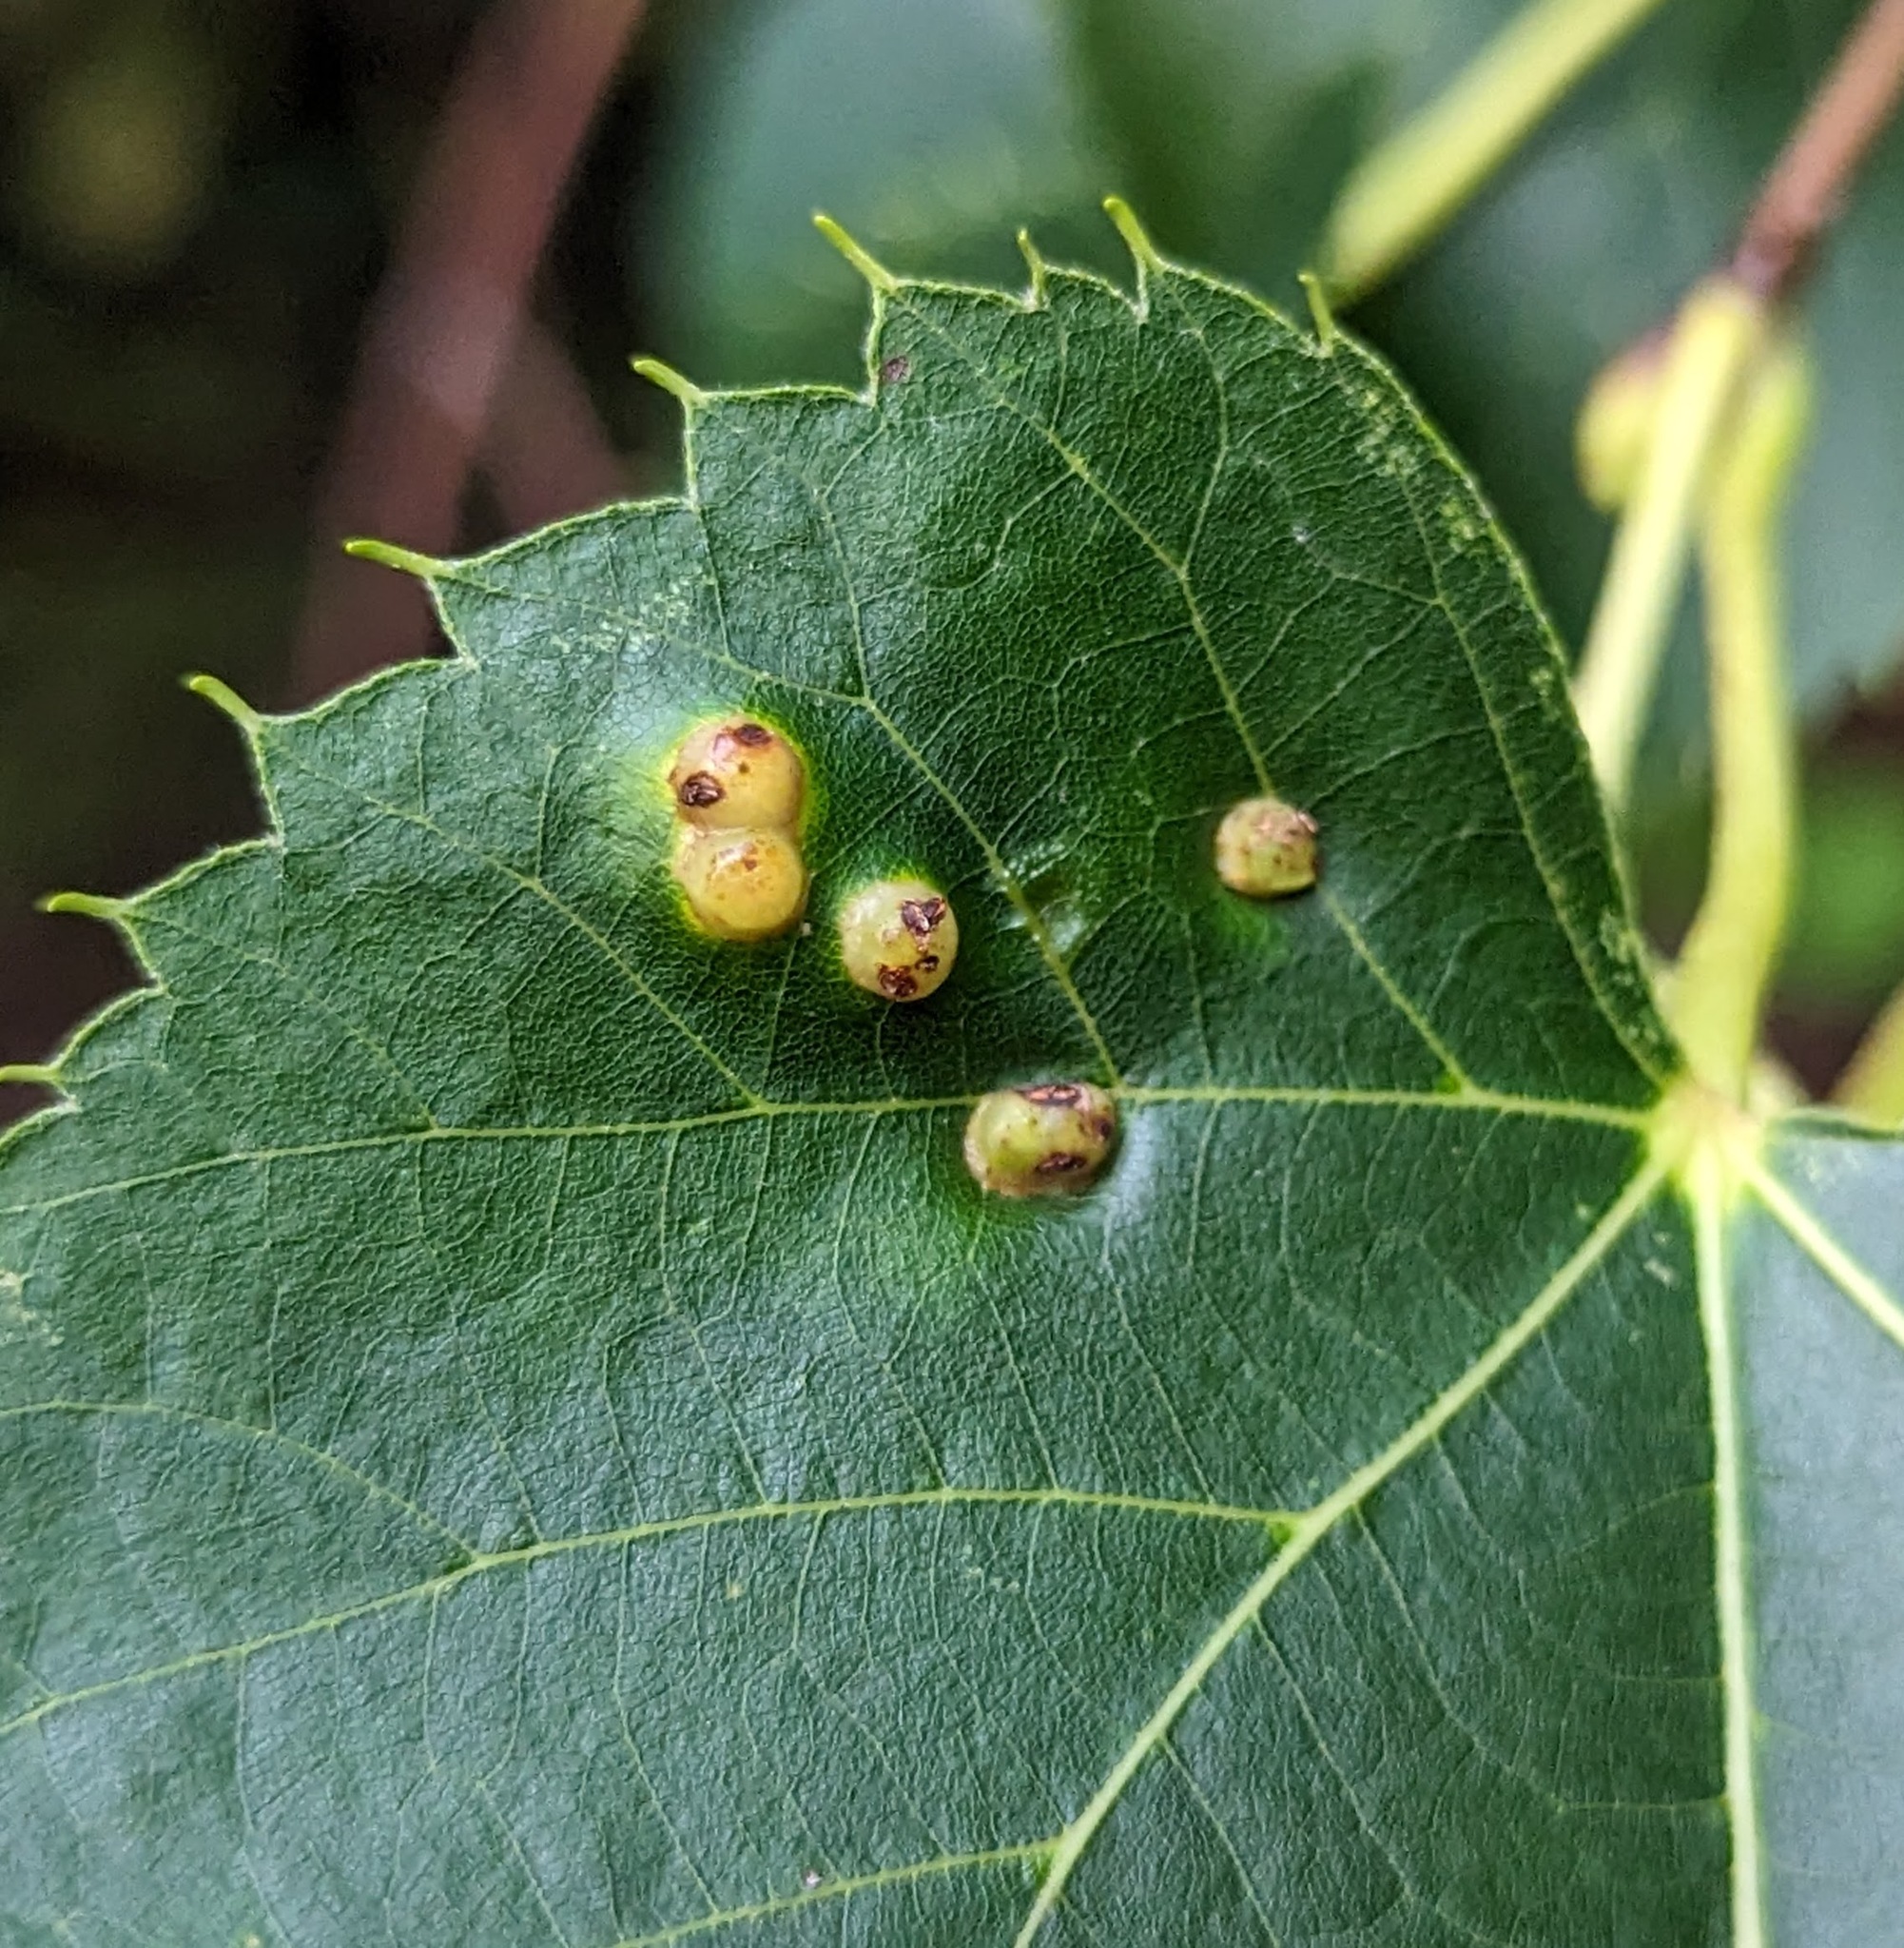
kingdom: Animalia
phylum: Arthropoda
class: Insecta
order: Diptera
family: Cecidomyiidae
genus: Contarinia
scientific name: Contarinia verrucicola
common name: Linden wart gall midge
